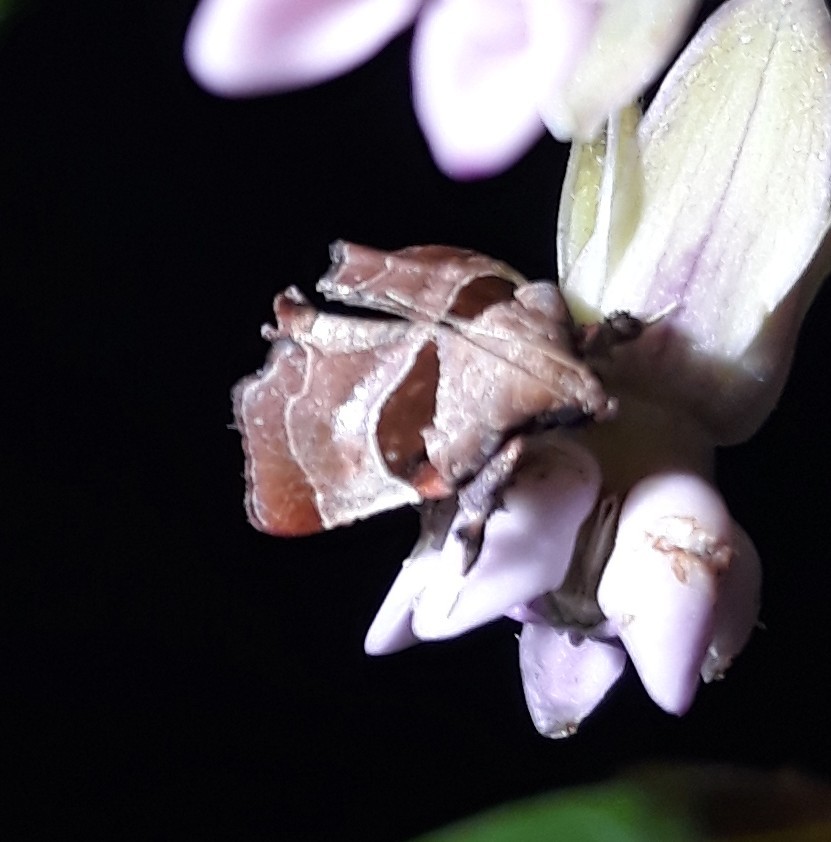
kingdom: Animalia
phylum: Arthropoda
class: Insecta
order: Lepidoptera
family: Pyralidae
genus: Tosale
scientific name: Tosale oviplagalis
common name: Dimorphic tosale moth
